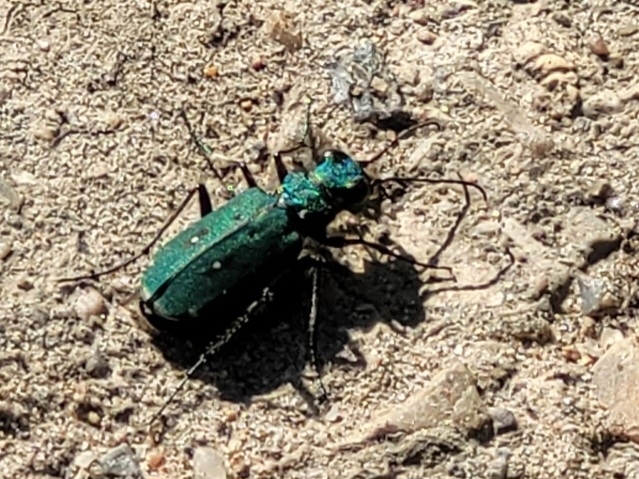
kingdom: Animalia
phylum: Arthropoda
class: Insecta
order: Coleoptera
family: Carabidae
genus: Cicindela
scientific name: Cicindela campestris
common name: Common tiger beetle
